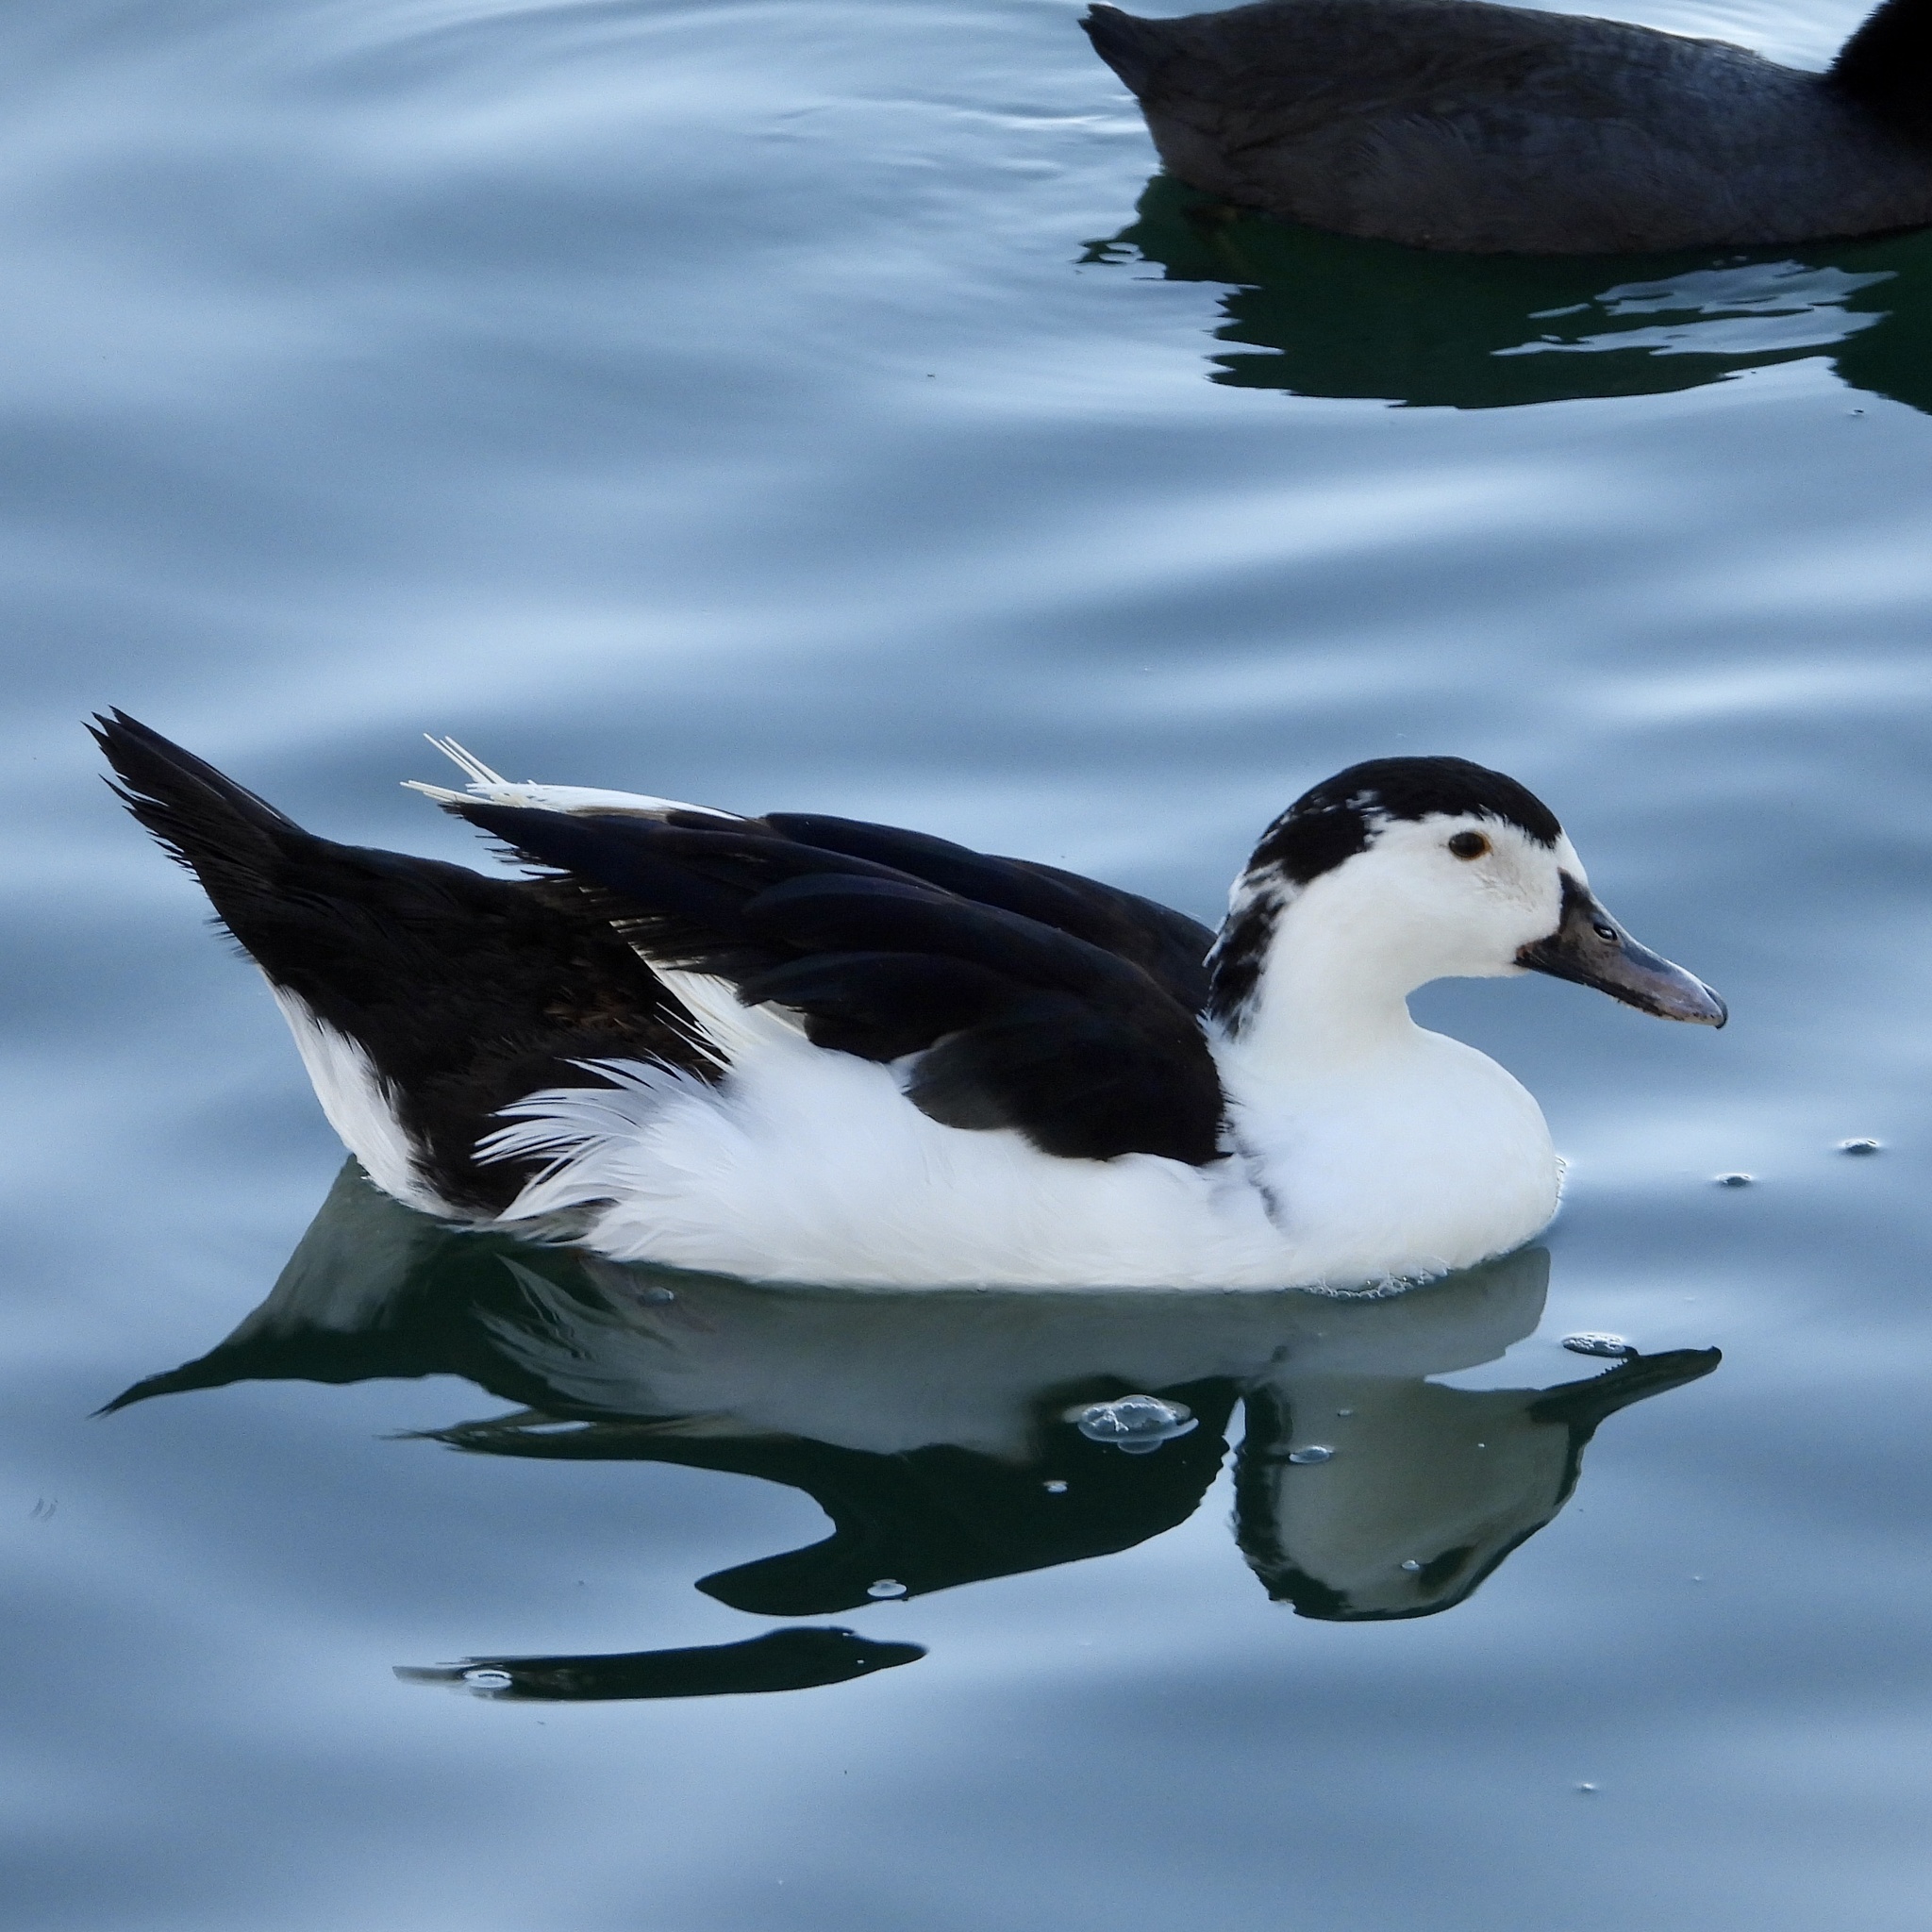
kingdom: Animalia
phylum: Chordata
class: Aves
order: Anseriformes
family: Anatidae
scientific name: Anatidae
